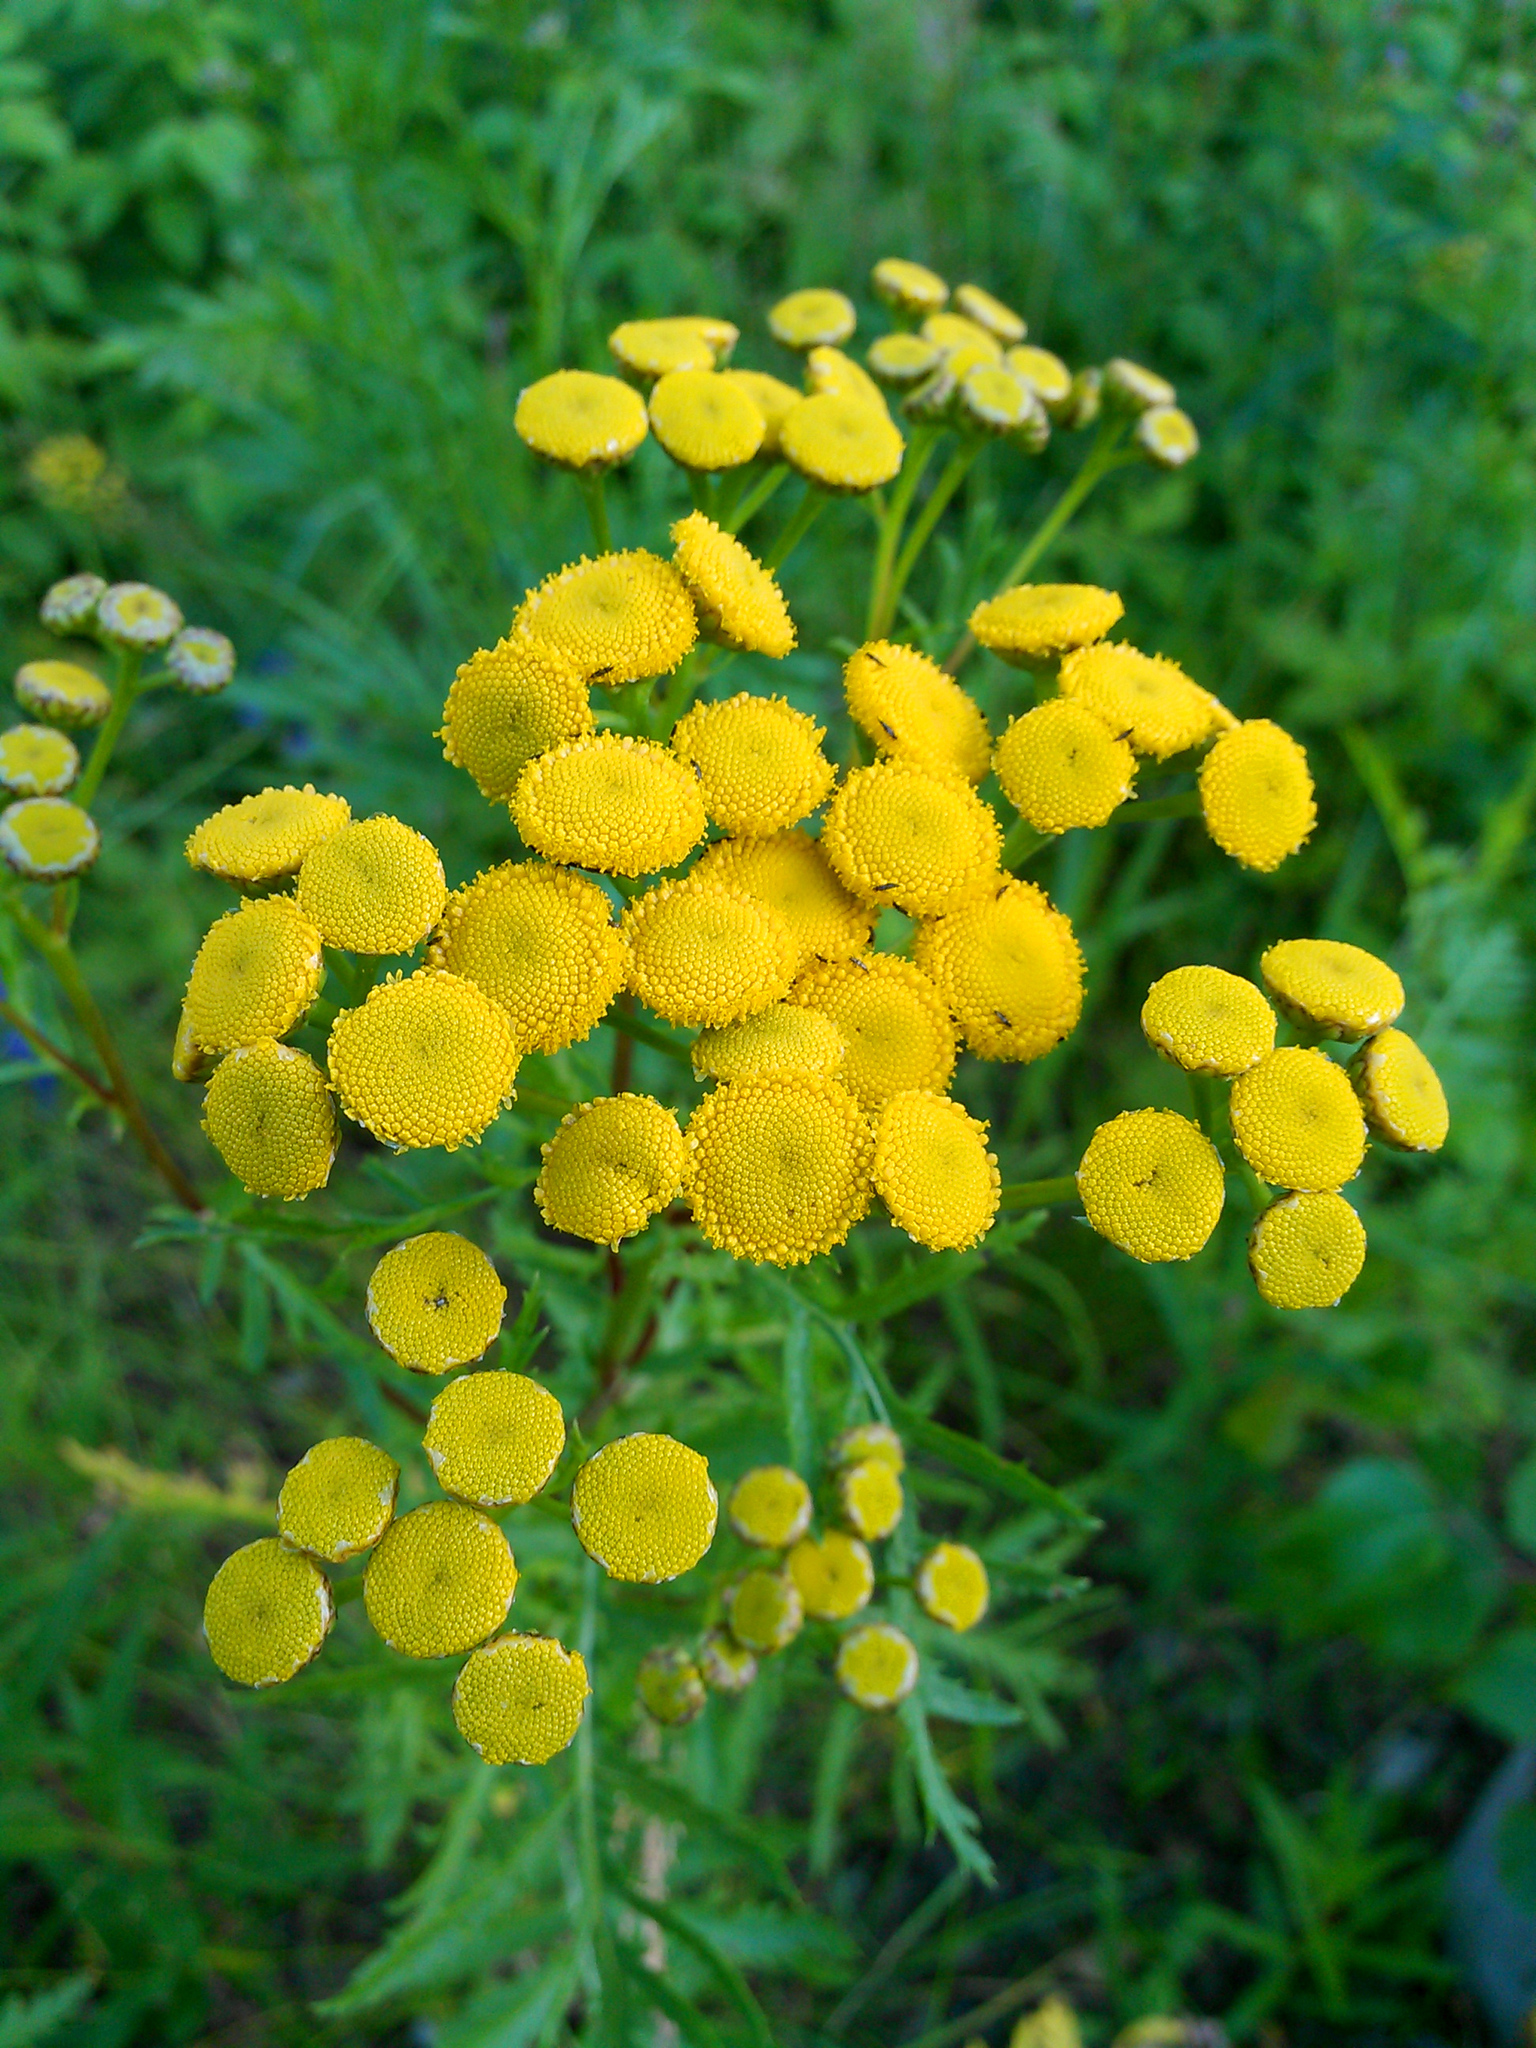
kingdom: Plantae
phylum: Tracheophyta
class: Magnoliopsida
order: Asterales
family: Asteraceae
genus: Tanacetum
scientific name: Tanacetum vulgare
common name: Common tansy
